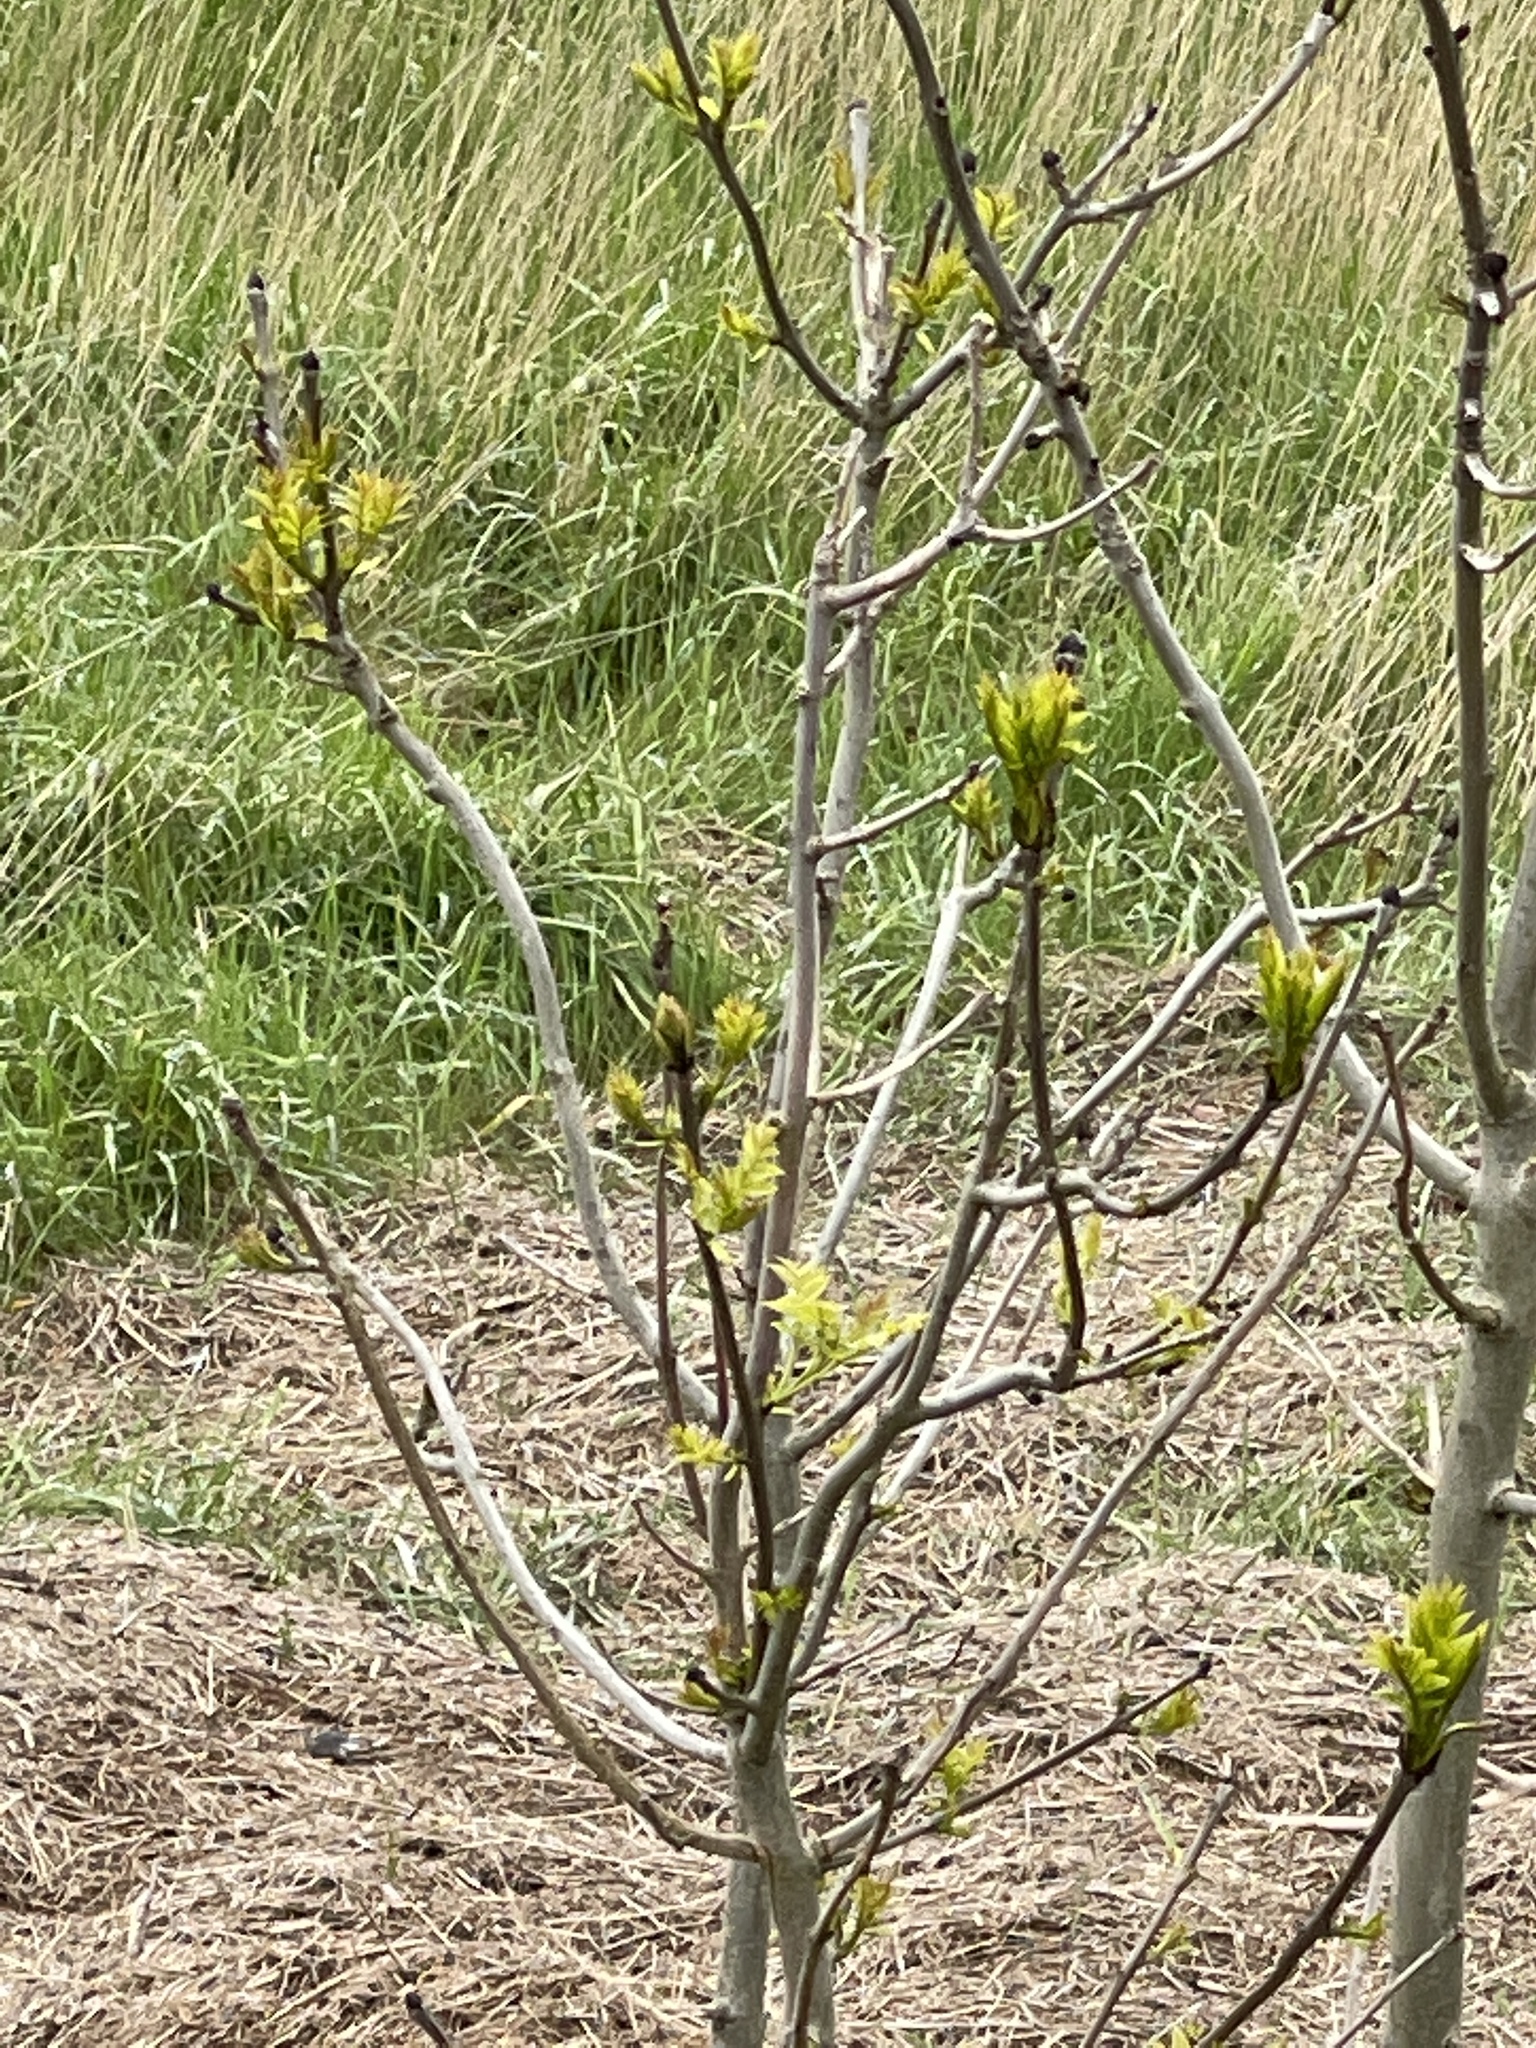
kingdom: Plantae
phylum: Tracheophyta
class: Magnoliopsida
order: Lamiales
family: Oleaceae
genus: Fraxinus
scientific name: Fraxinus excelsior
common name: European ash
